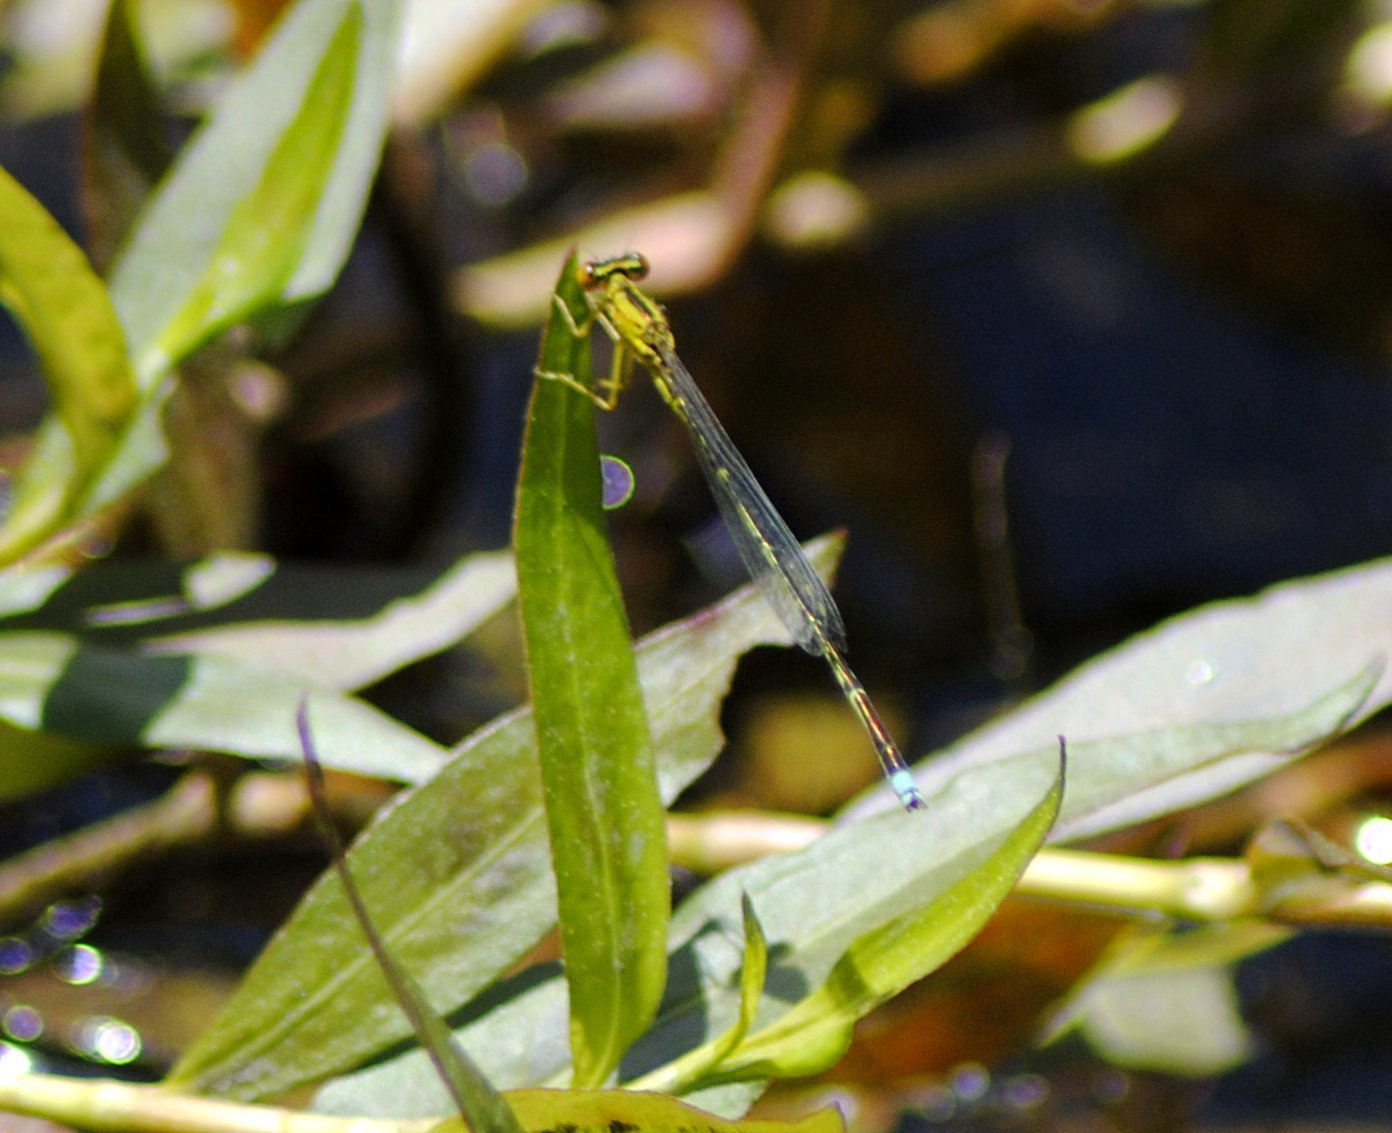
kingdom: Animalia
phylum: Arthropoda
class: Insecta
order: Odonata
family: Coenagrionidae
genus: Enallagma
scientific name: Enallagma vesperum
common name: Vesper bluet
